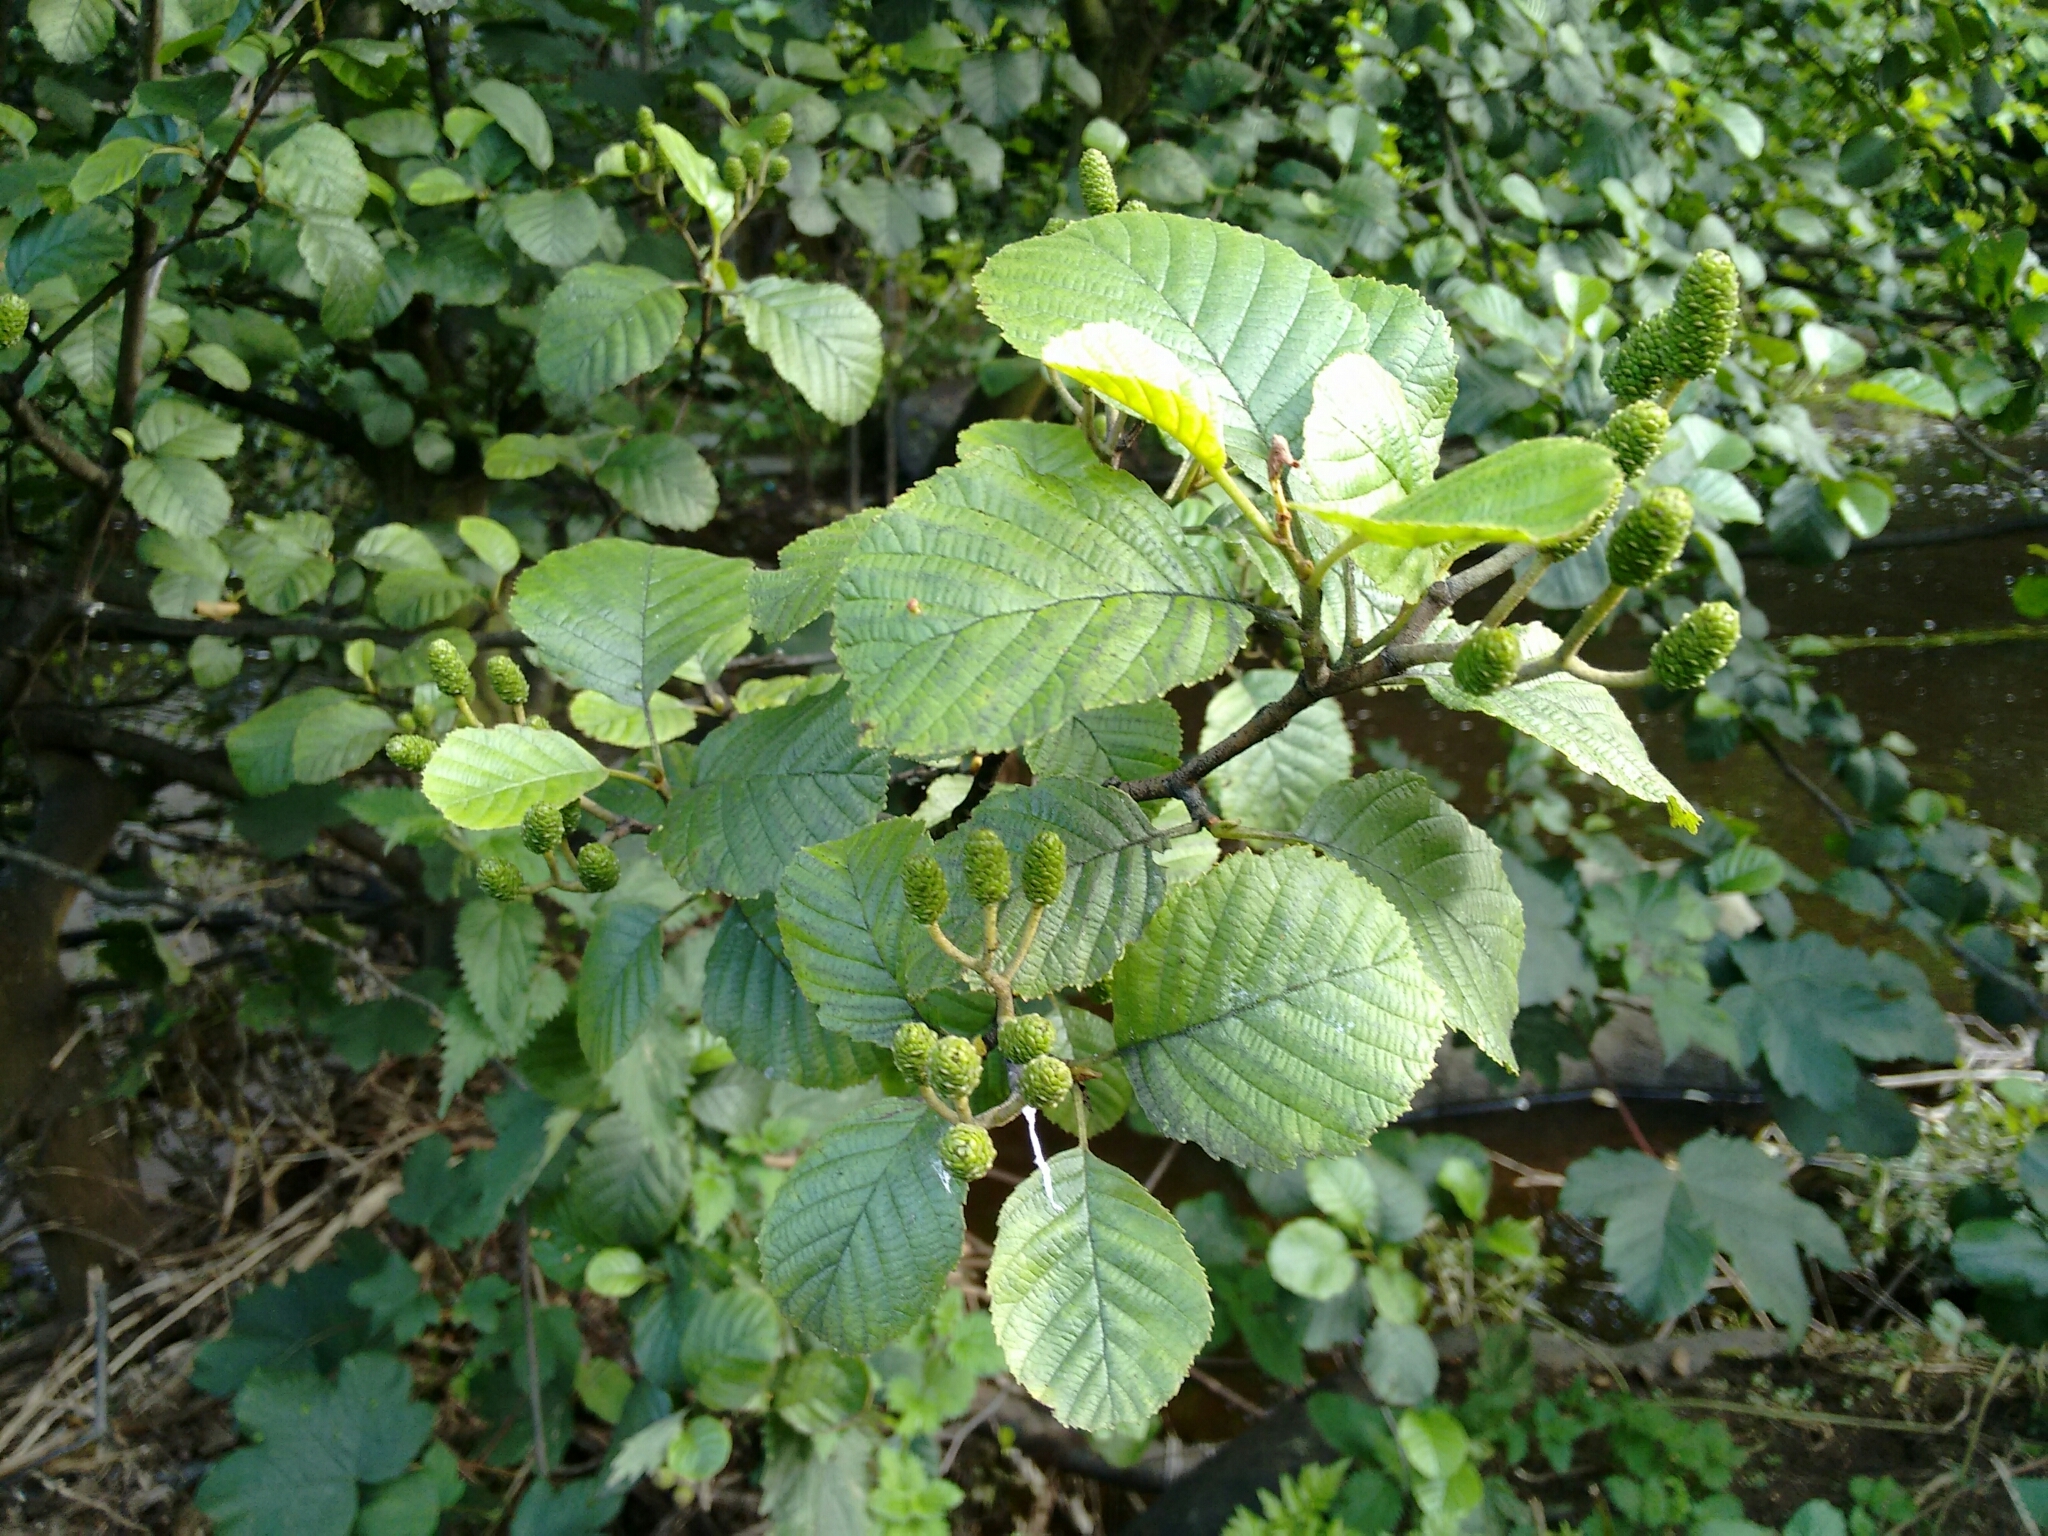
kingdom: Plantae
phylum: Tracheophyta
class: Magnoliopsida
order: Fagales
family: Betulaceae
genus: Alnus
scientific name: Alnus glutinosa
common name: Black alder
